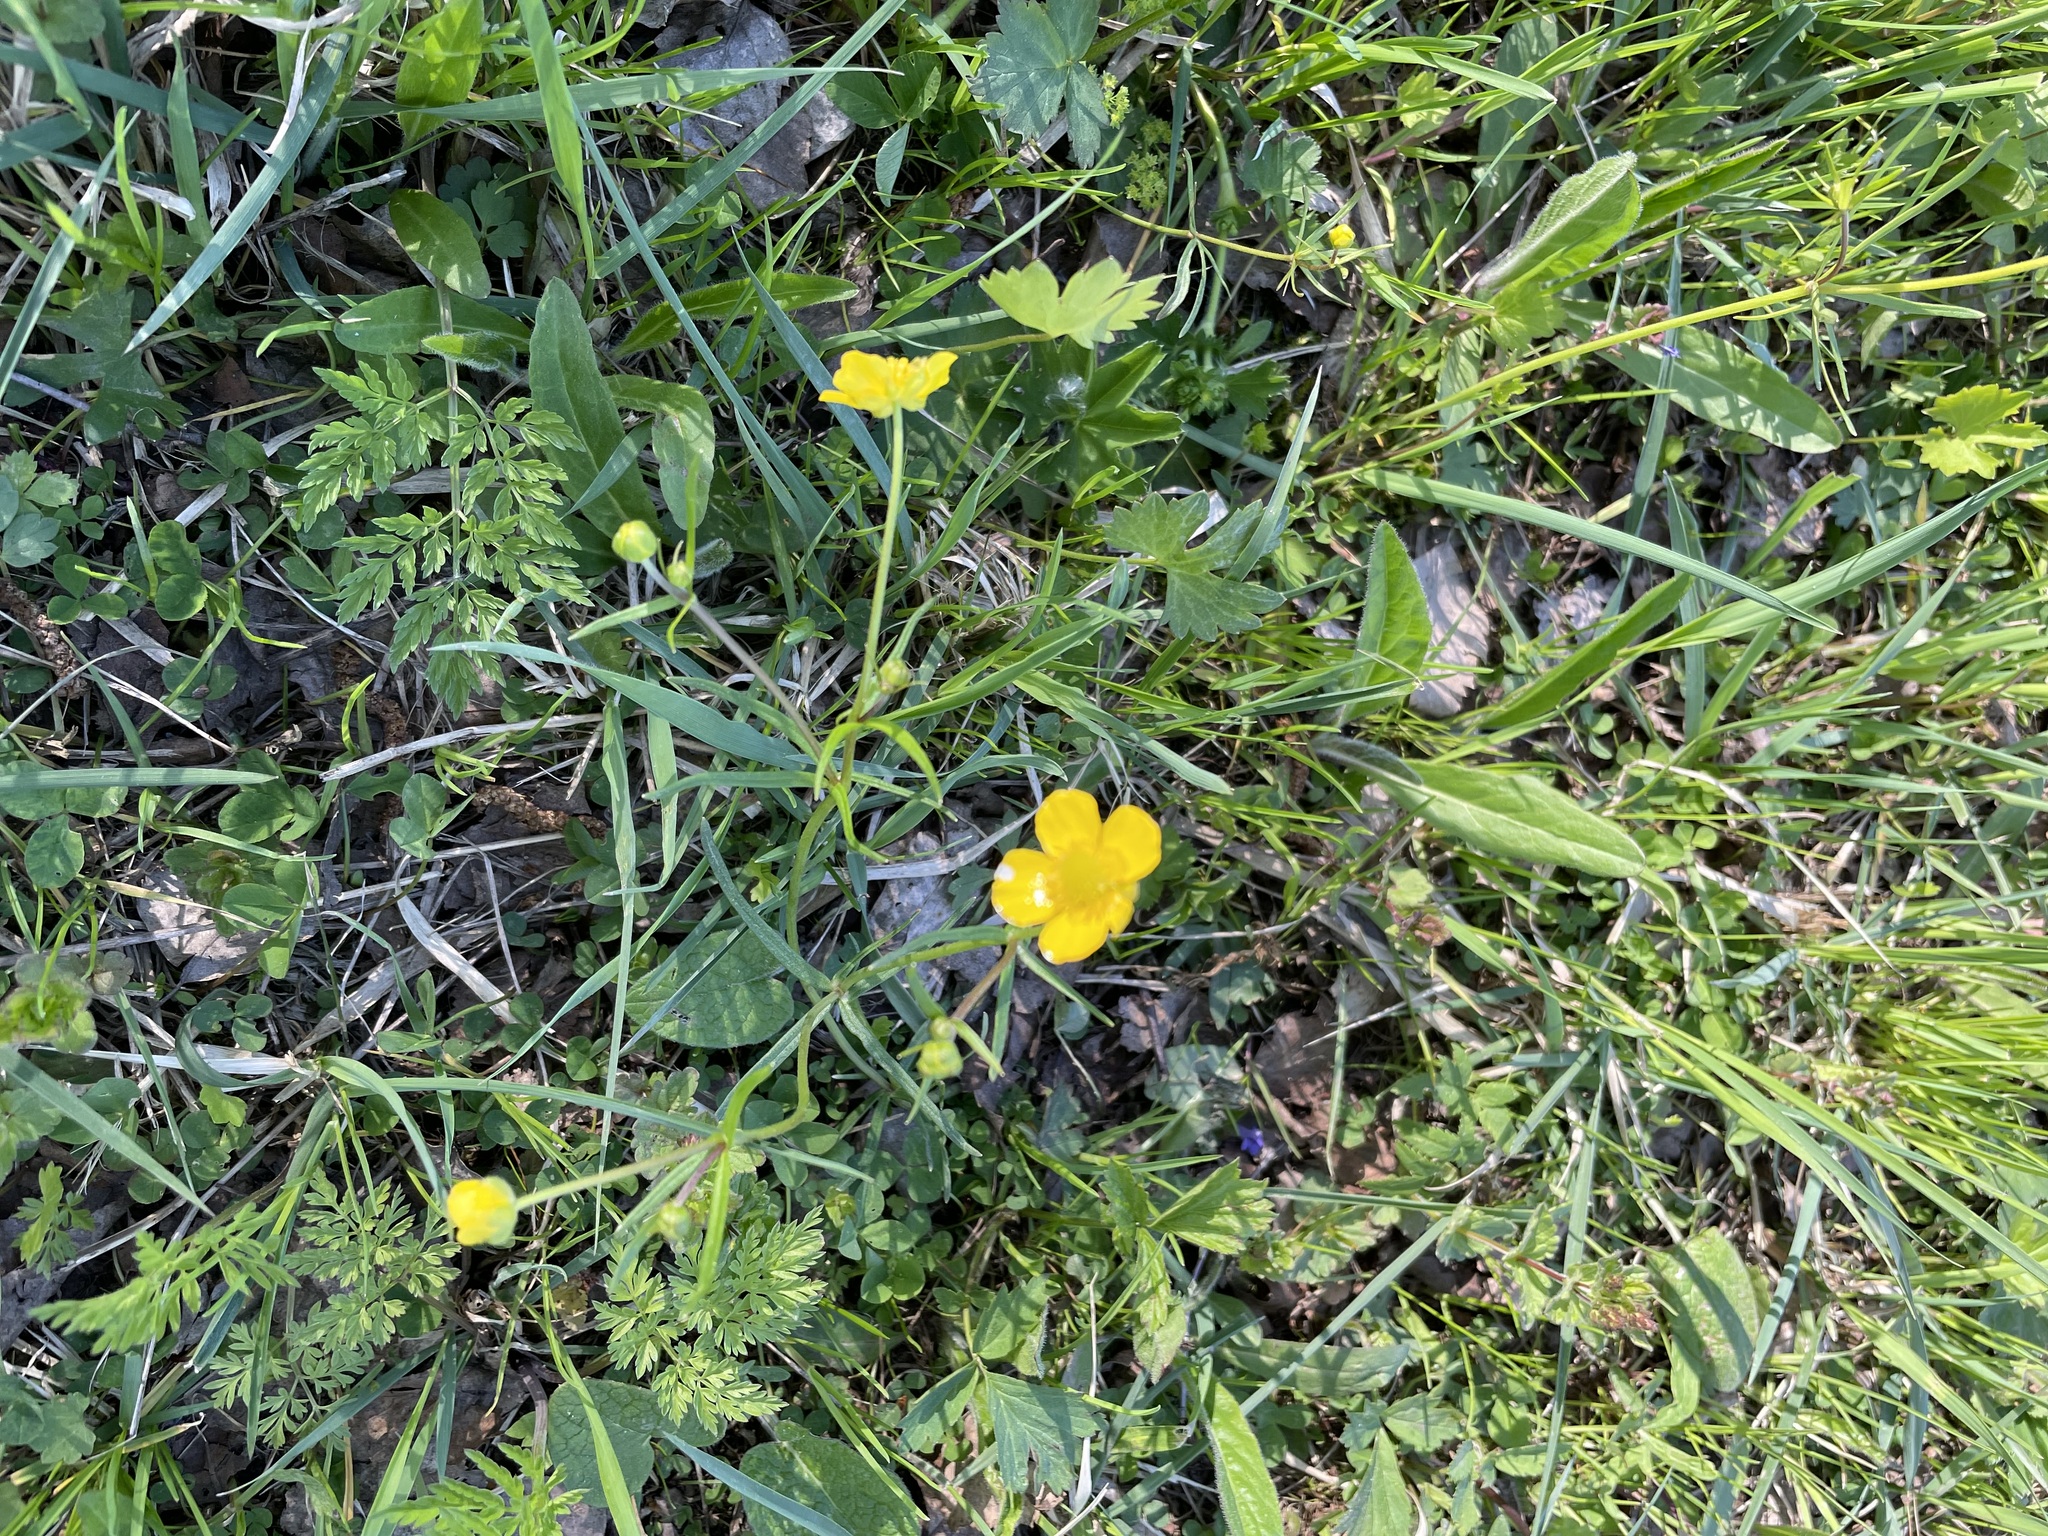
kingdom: Plantae
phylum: Tracheophyta
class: Magnoliopsida
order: Ranunculales
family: Ranunculaceae
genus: Ranunculus
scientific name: Ranunculus auricomus
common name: Goldilocks buttercup
